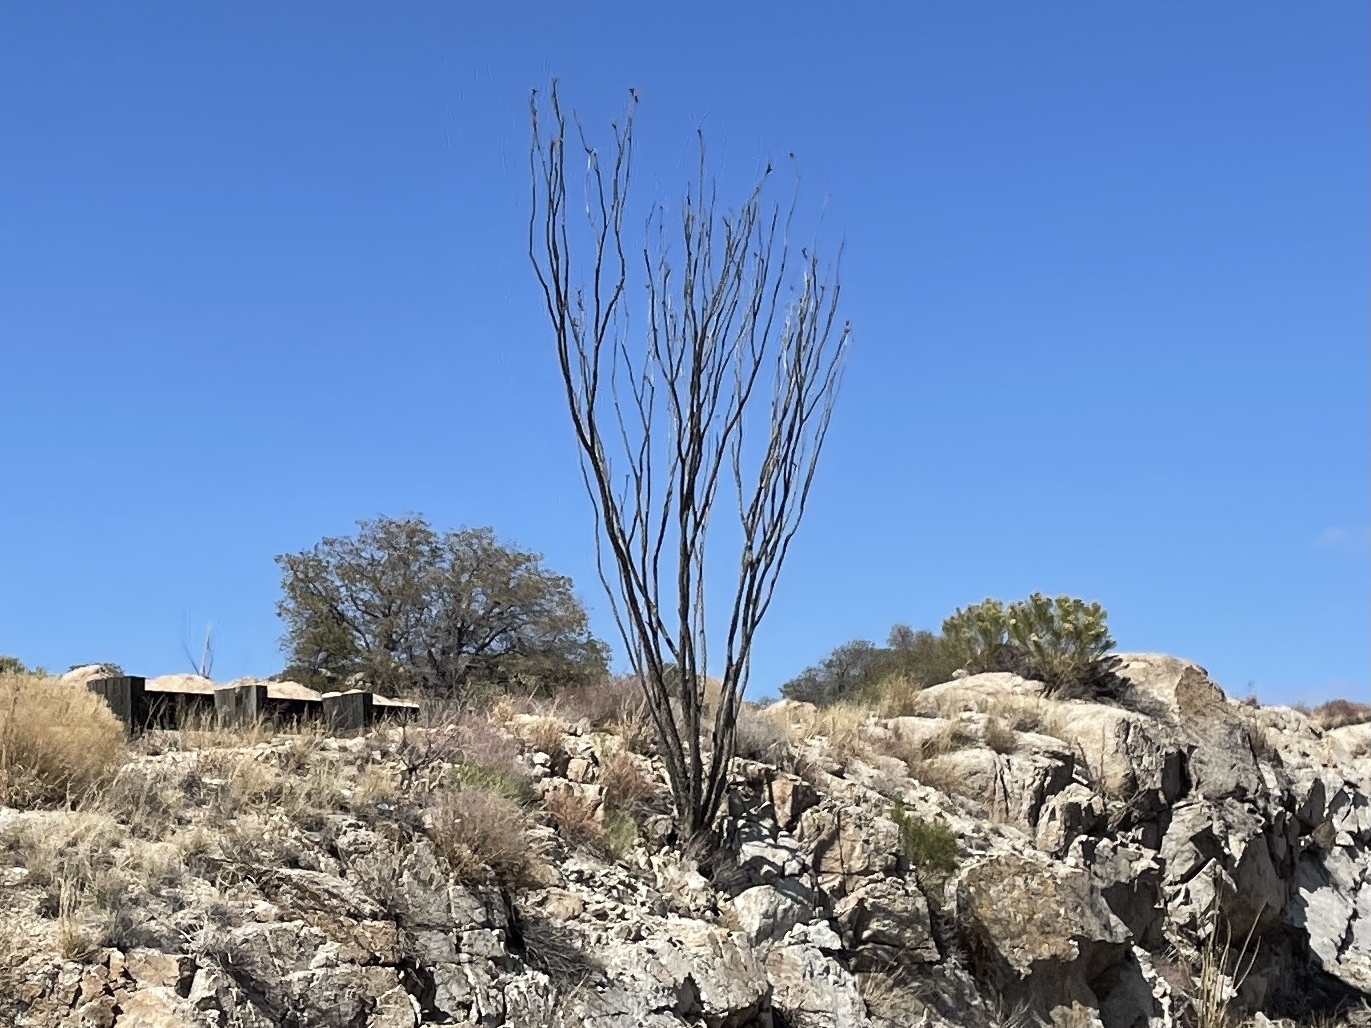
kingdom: Plantae
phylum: Tracheophyta
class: Magnoliopsida
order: Ericales
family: Fouquieriaceae
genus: Fouquieria
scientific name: Fouquieria splendens
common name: Vine-cactus
